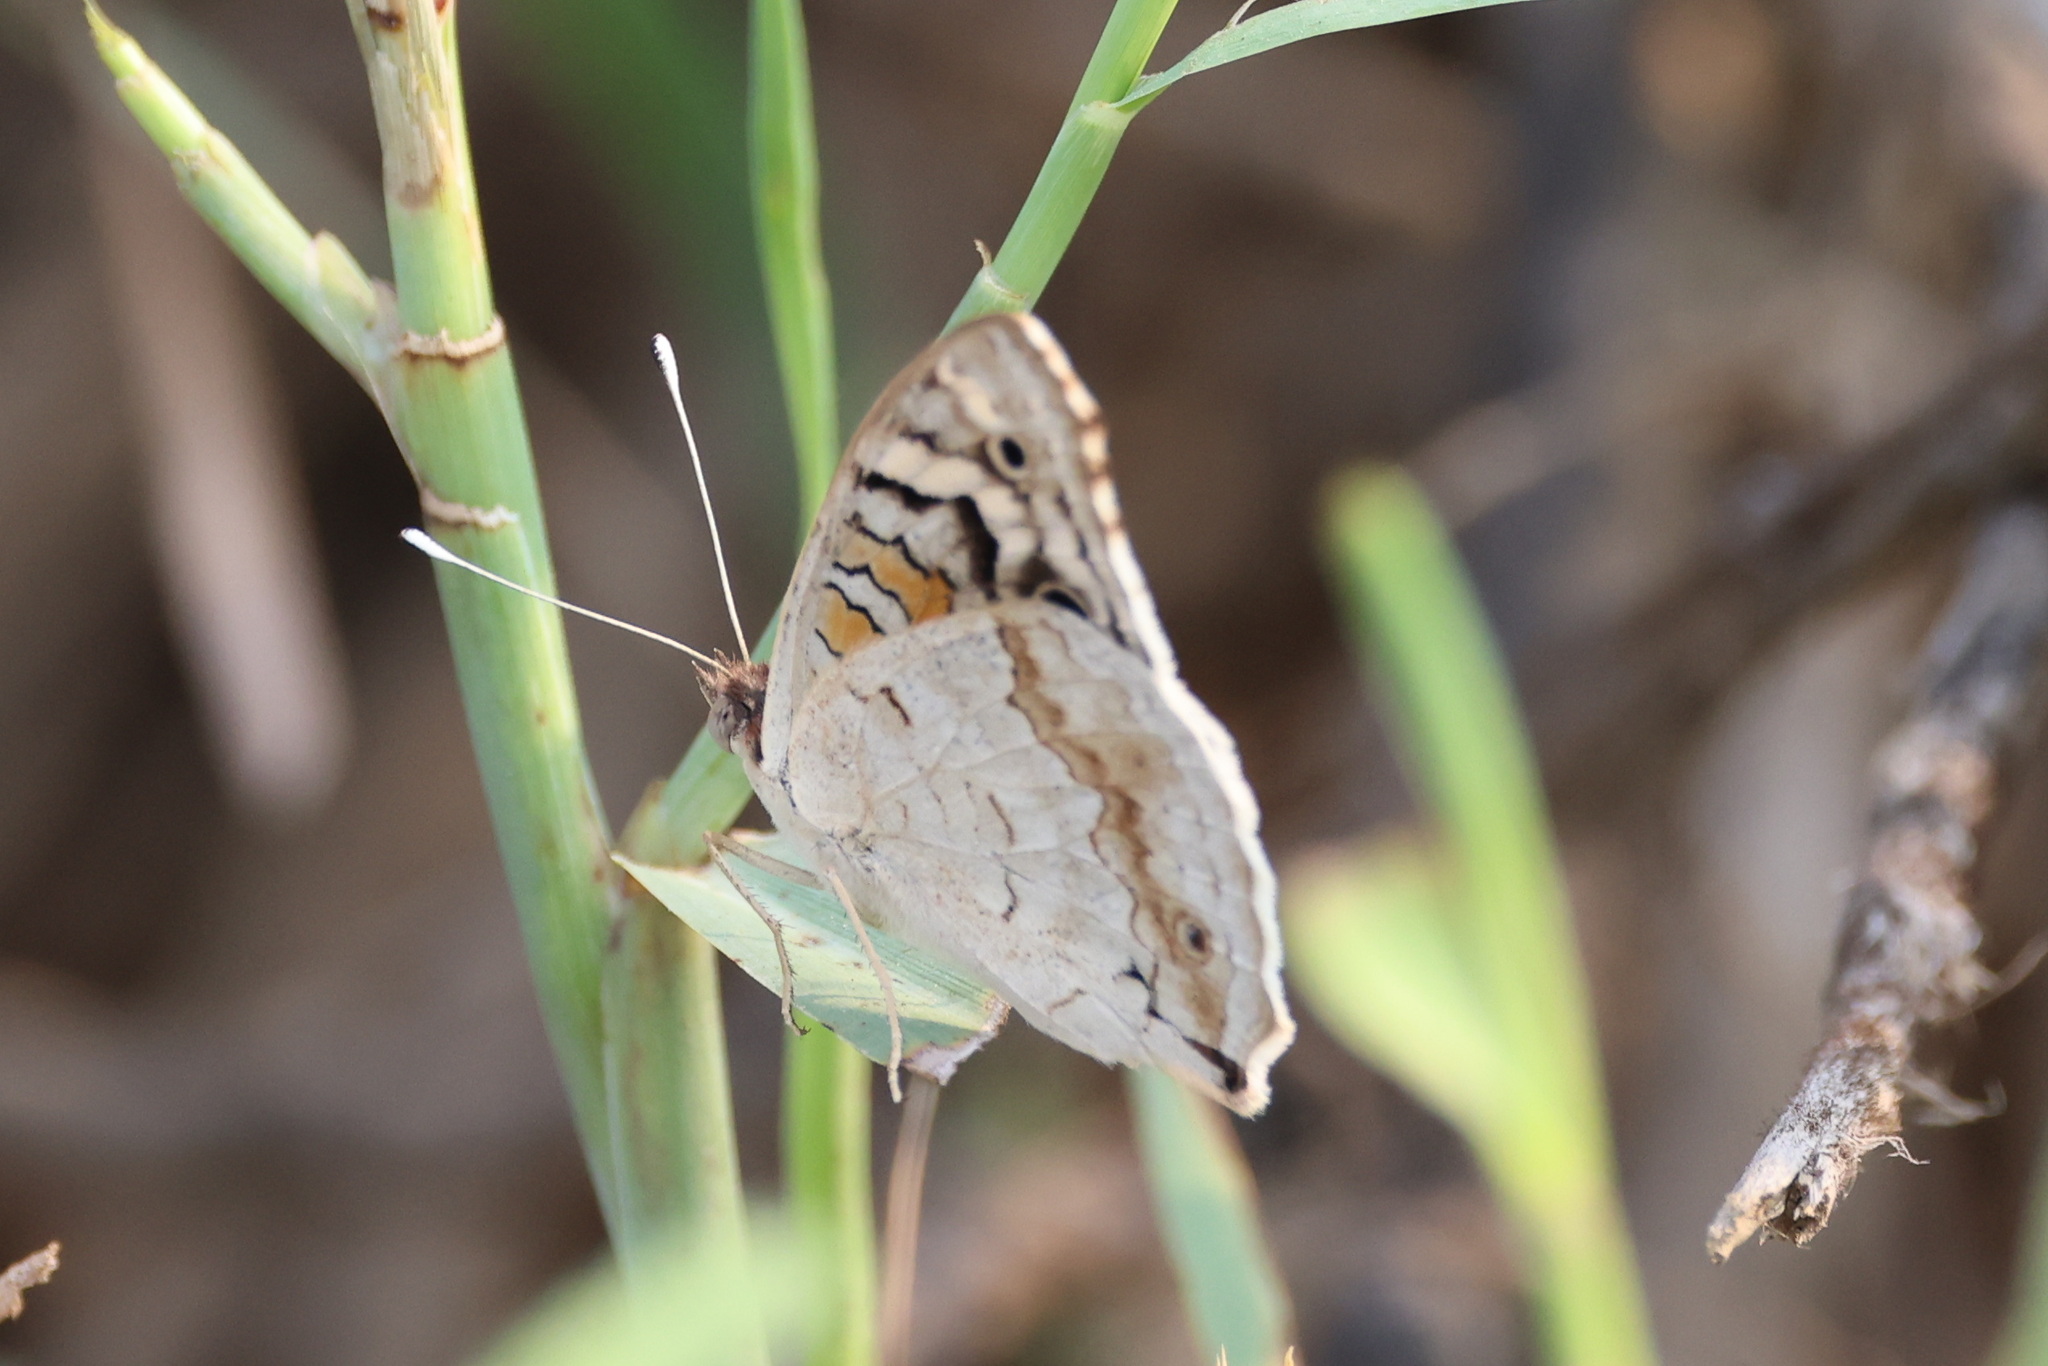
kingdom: Animalia
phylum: Arthropoda
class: Insecta
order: Lepidoptera
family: Nymphalidae
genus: Junonia
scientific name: Junonia orithya
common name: Blue pansy
